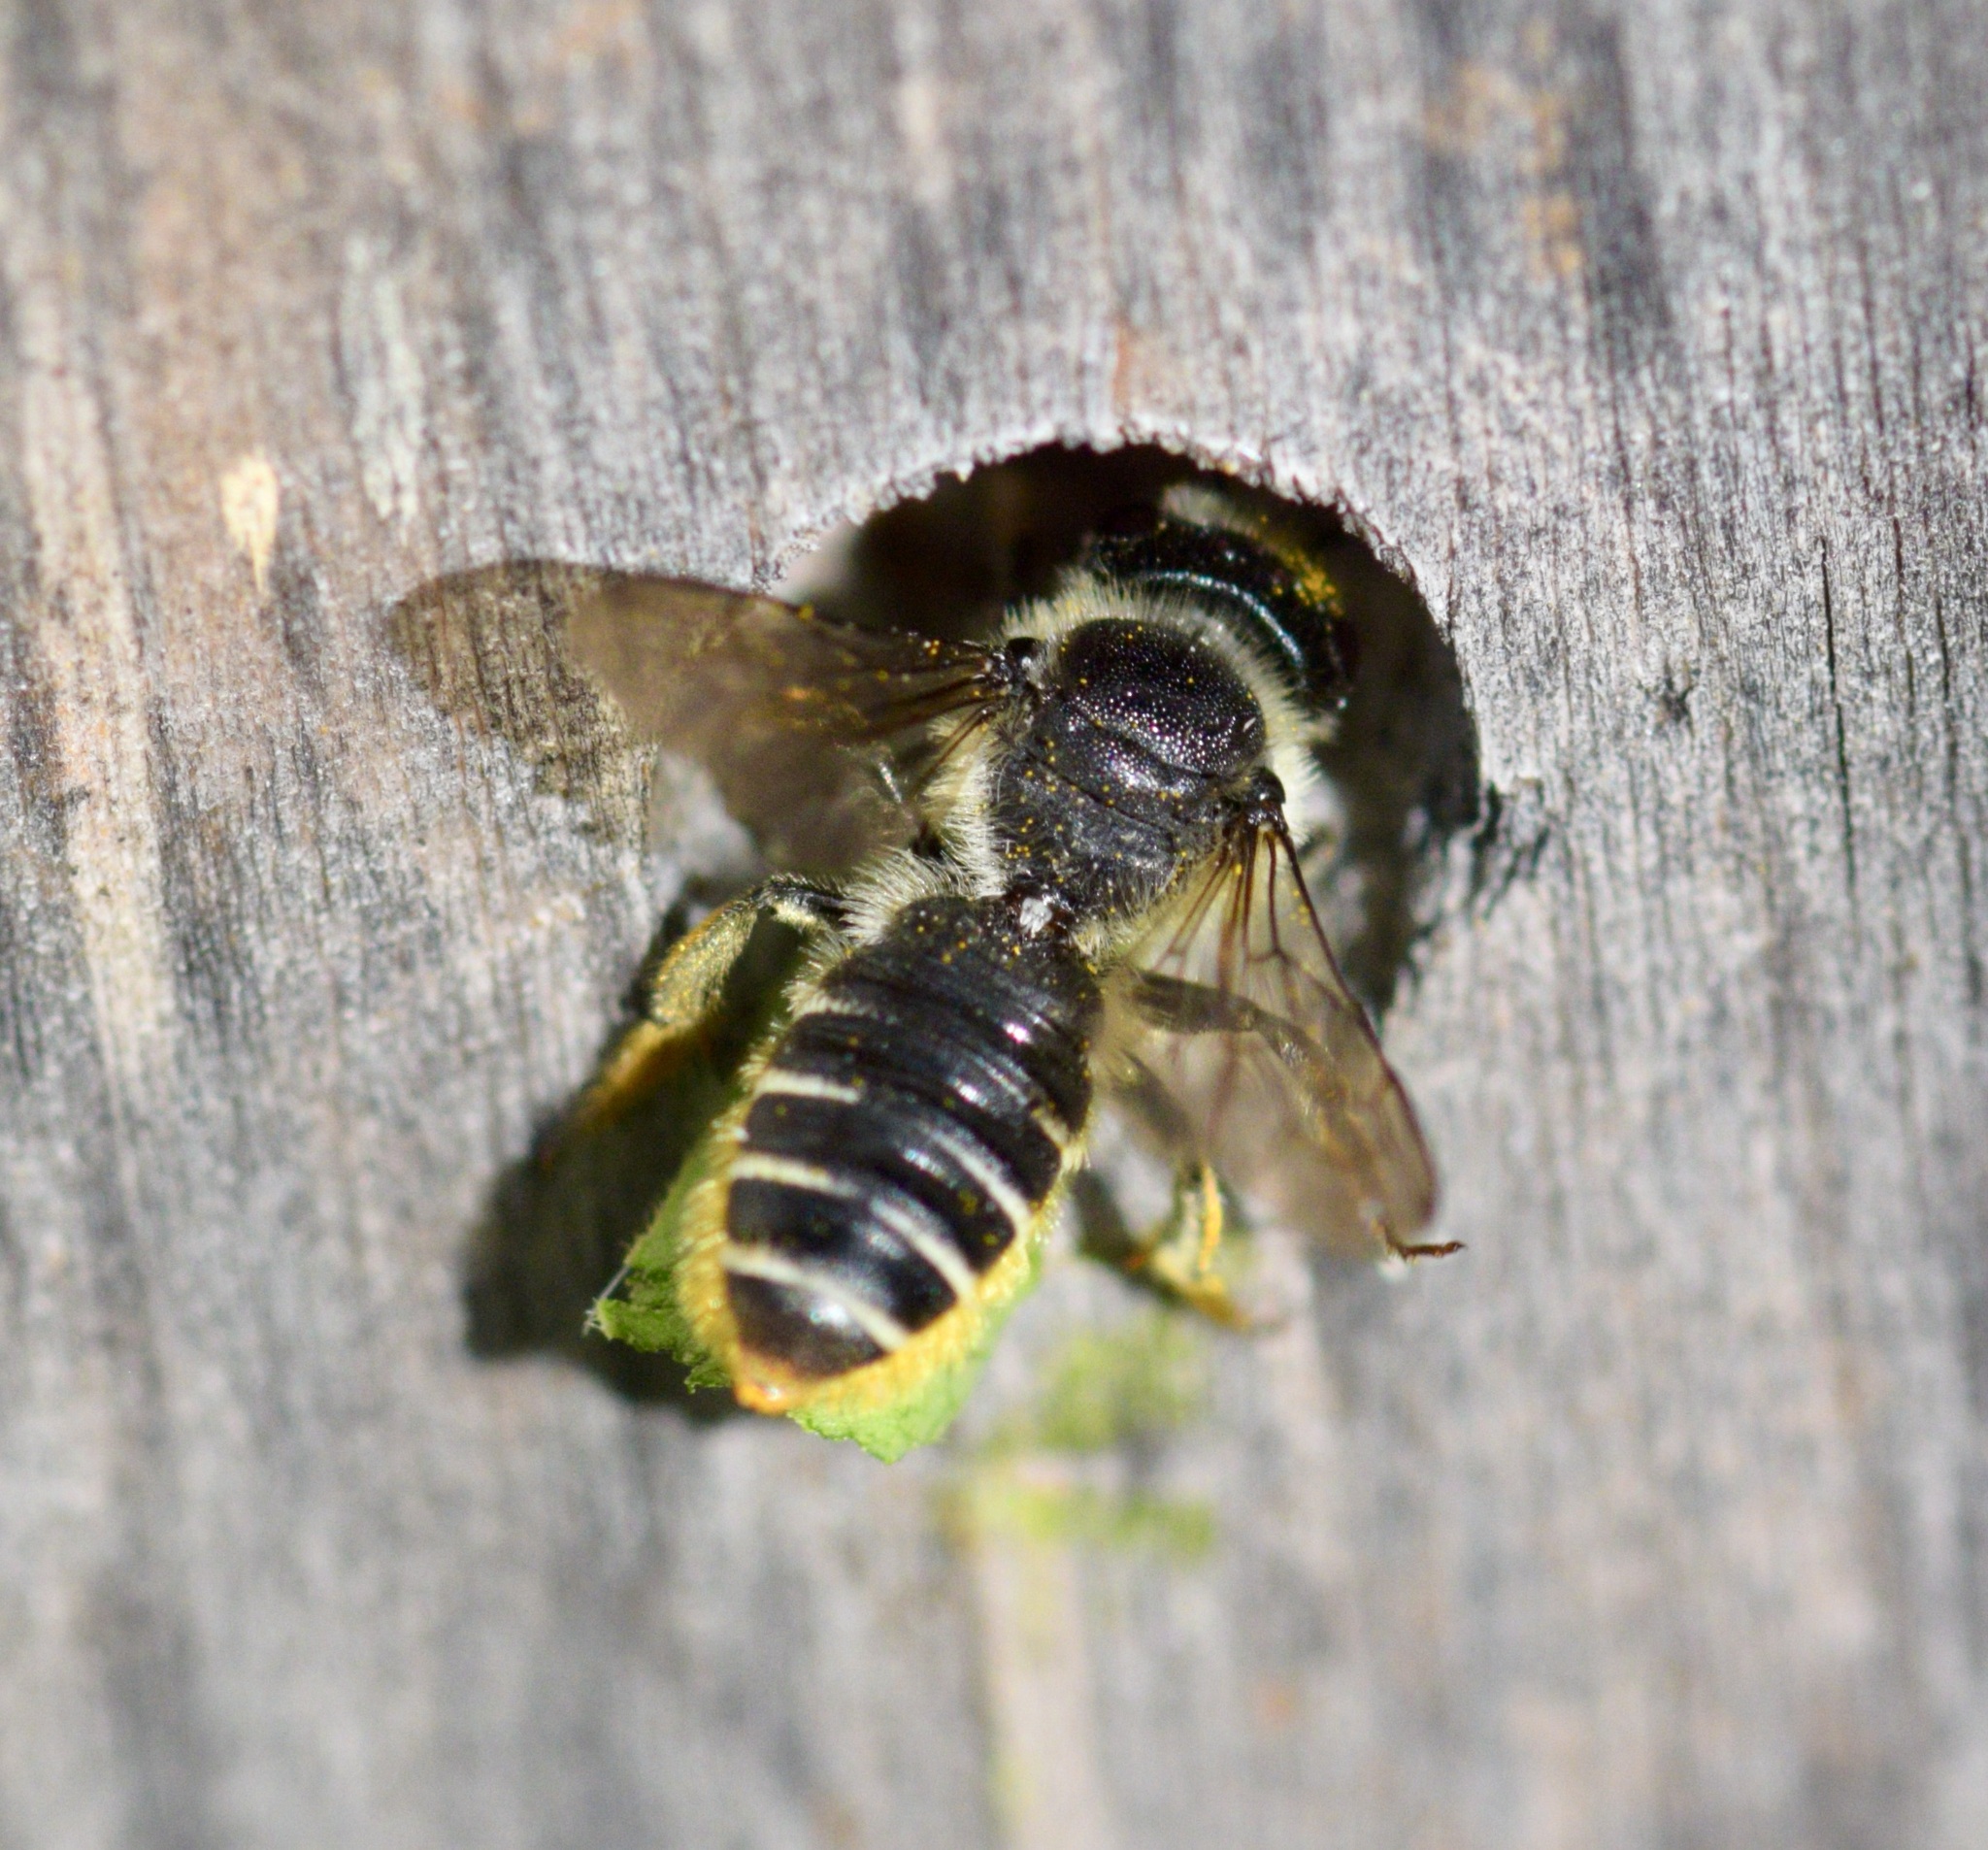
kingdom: Animalia
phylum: Arthropoda
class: Insecta
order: Hymenoptera
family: Megachilidae
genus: Megachile
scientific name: Megachile relativa
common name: Golden-tailed leafcutter
